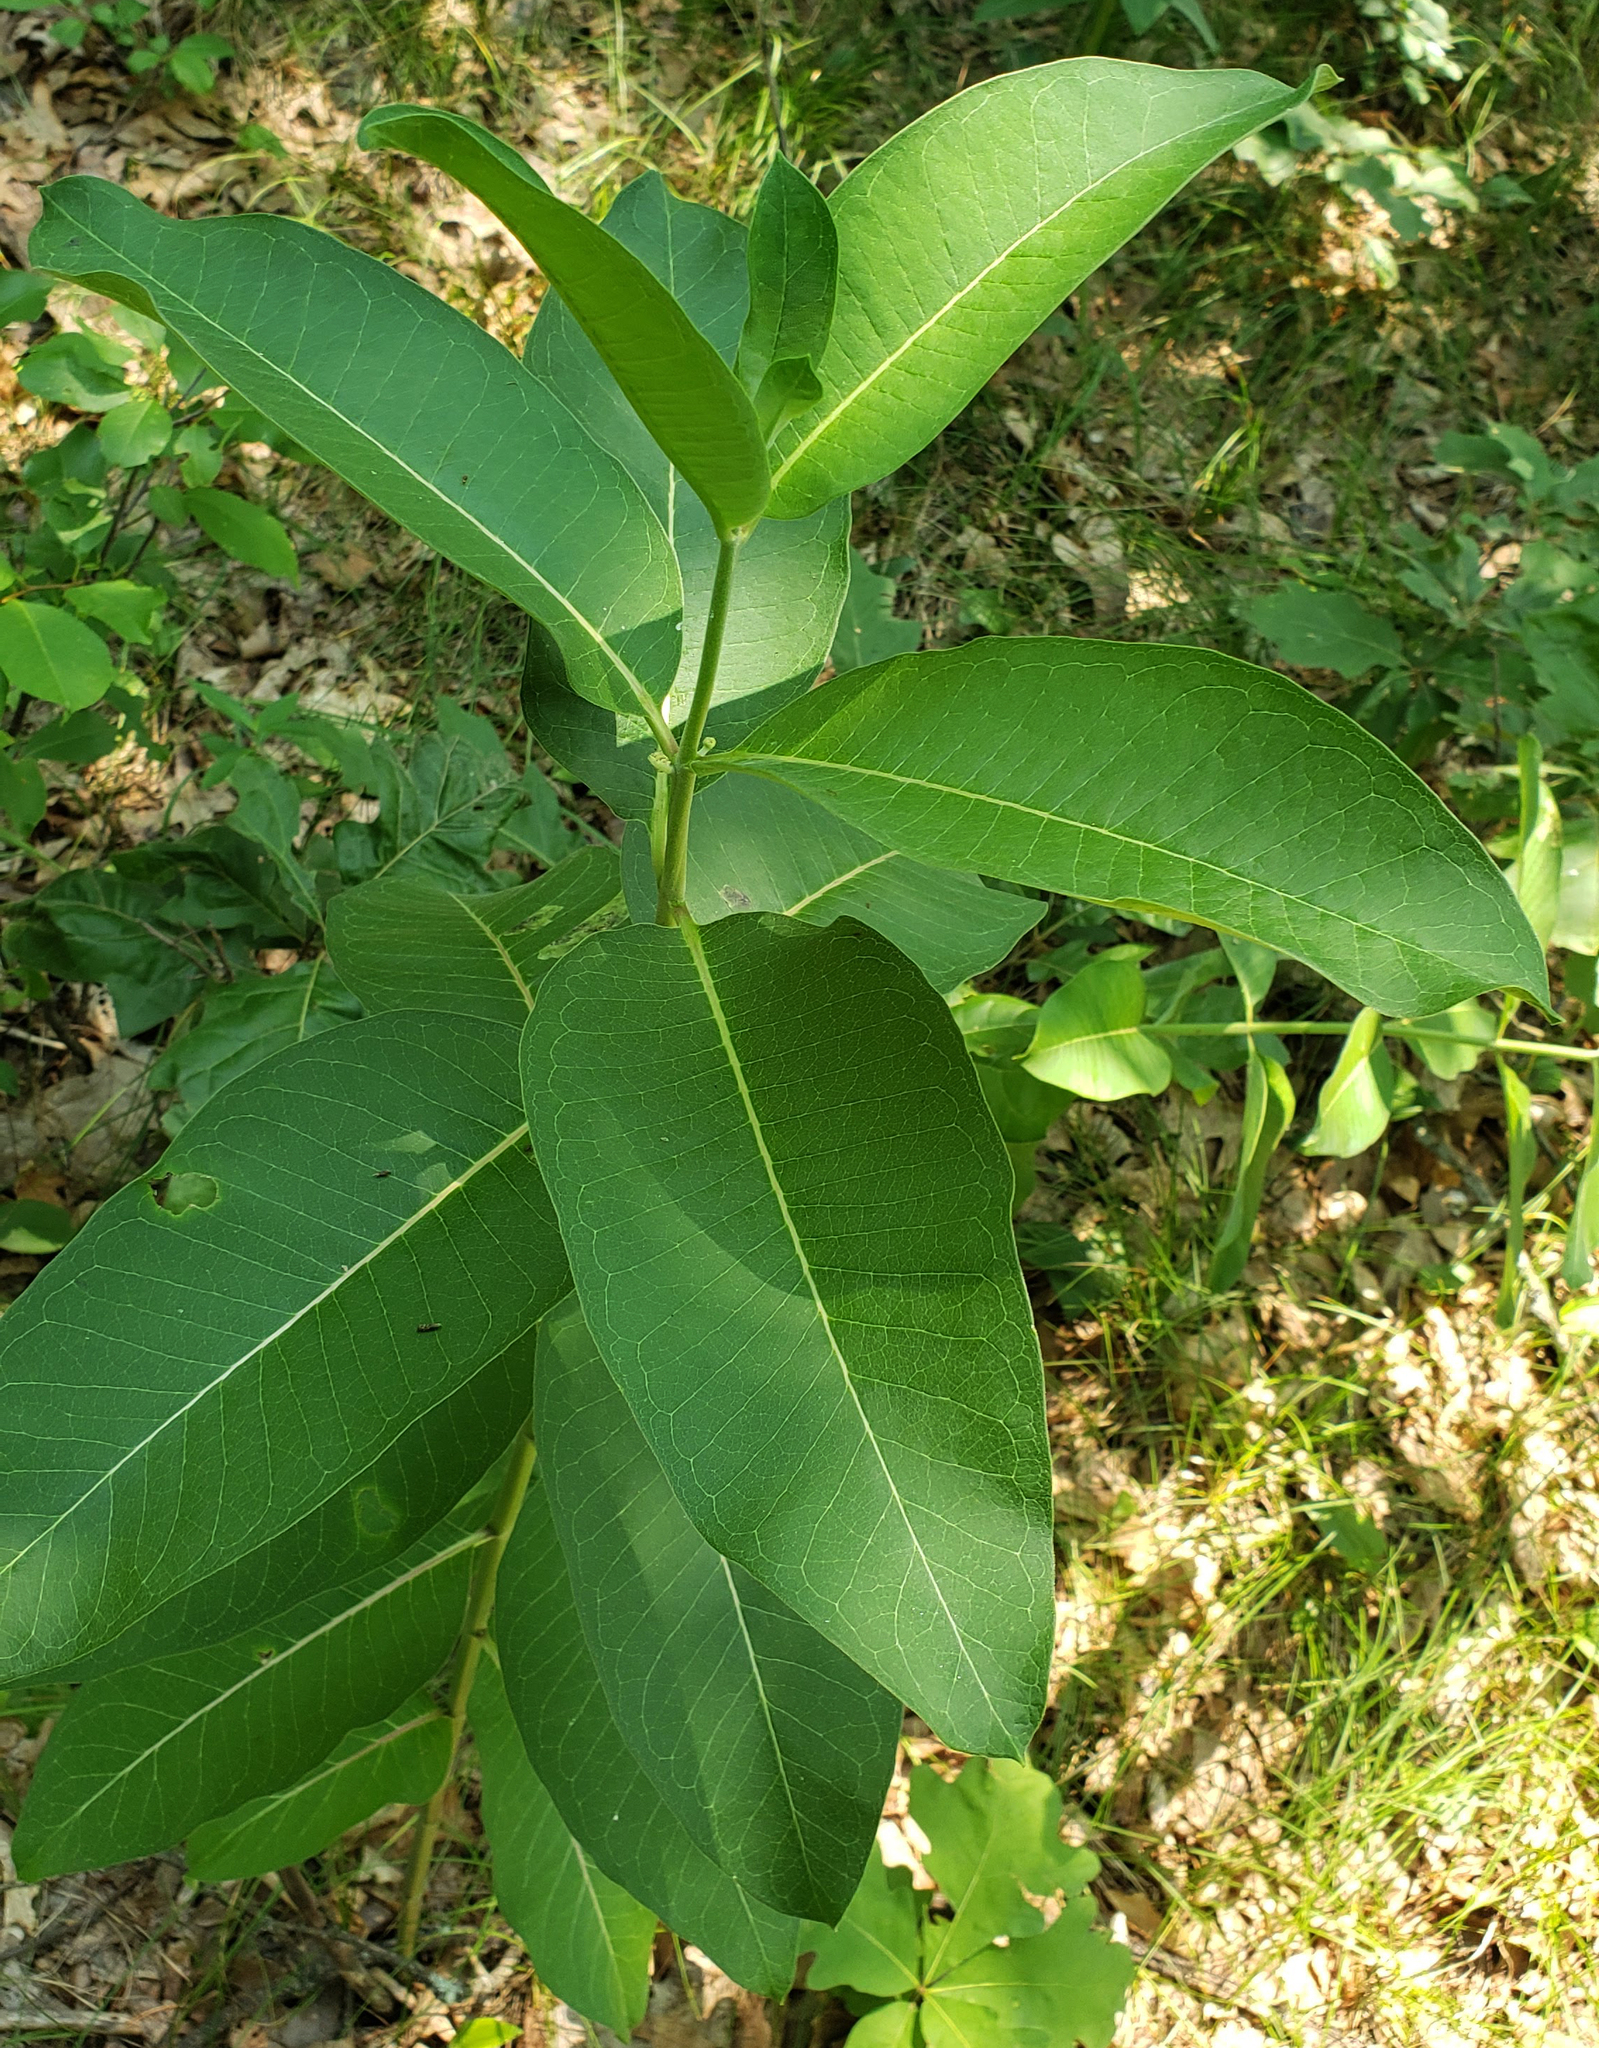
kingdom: Plantae
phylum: Tracheophyta
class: Magnoliopsida
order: Gentianales
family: Apocynaceae
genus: Asclepias
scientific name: Asclepias syriaca
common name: Common milkweed
